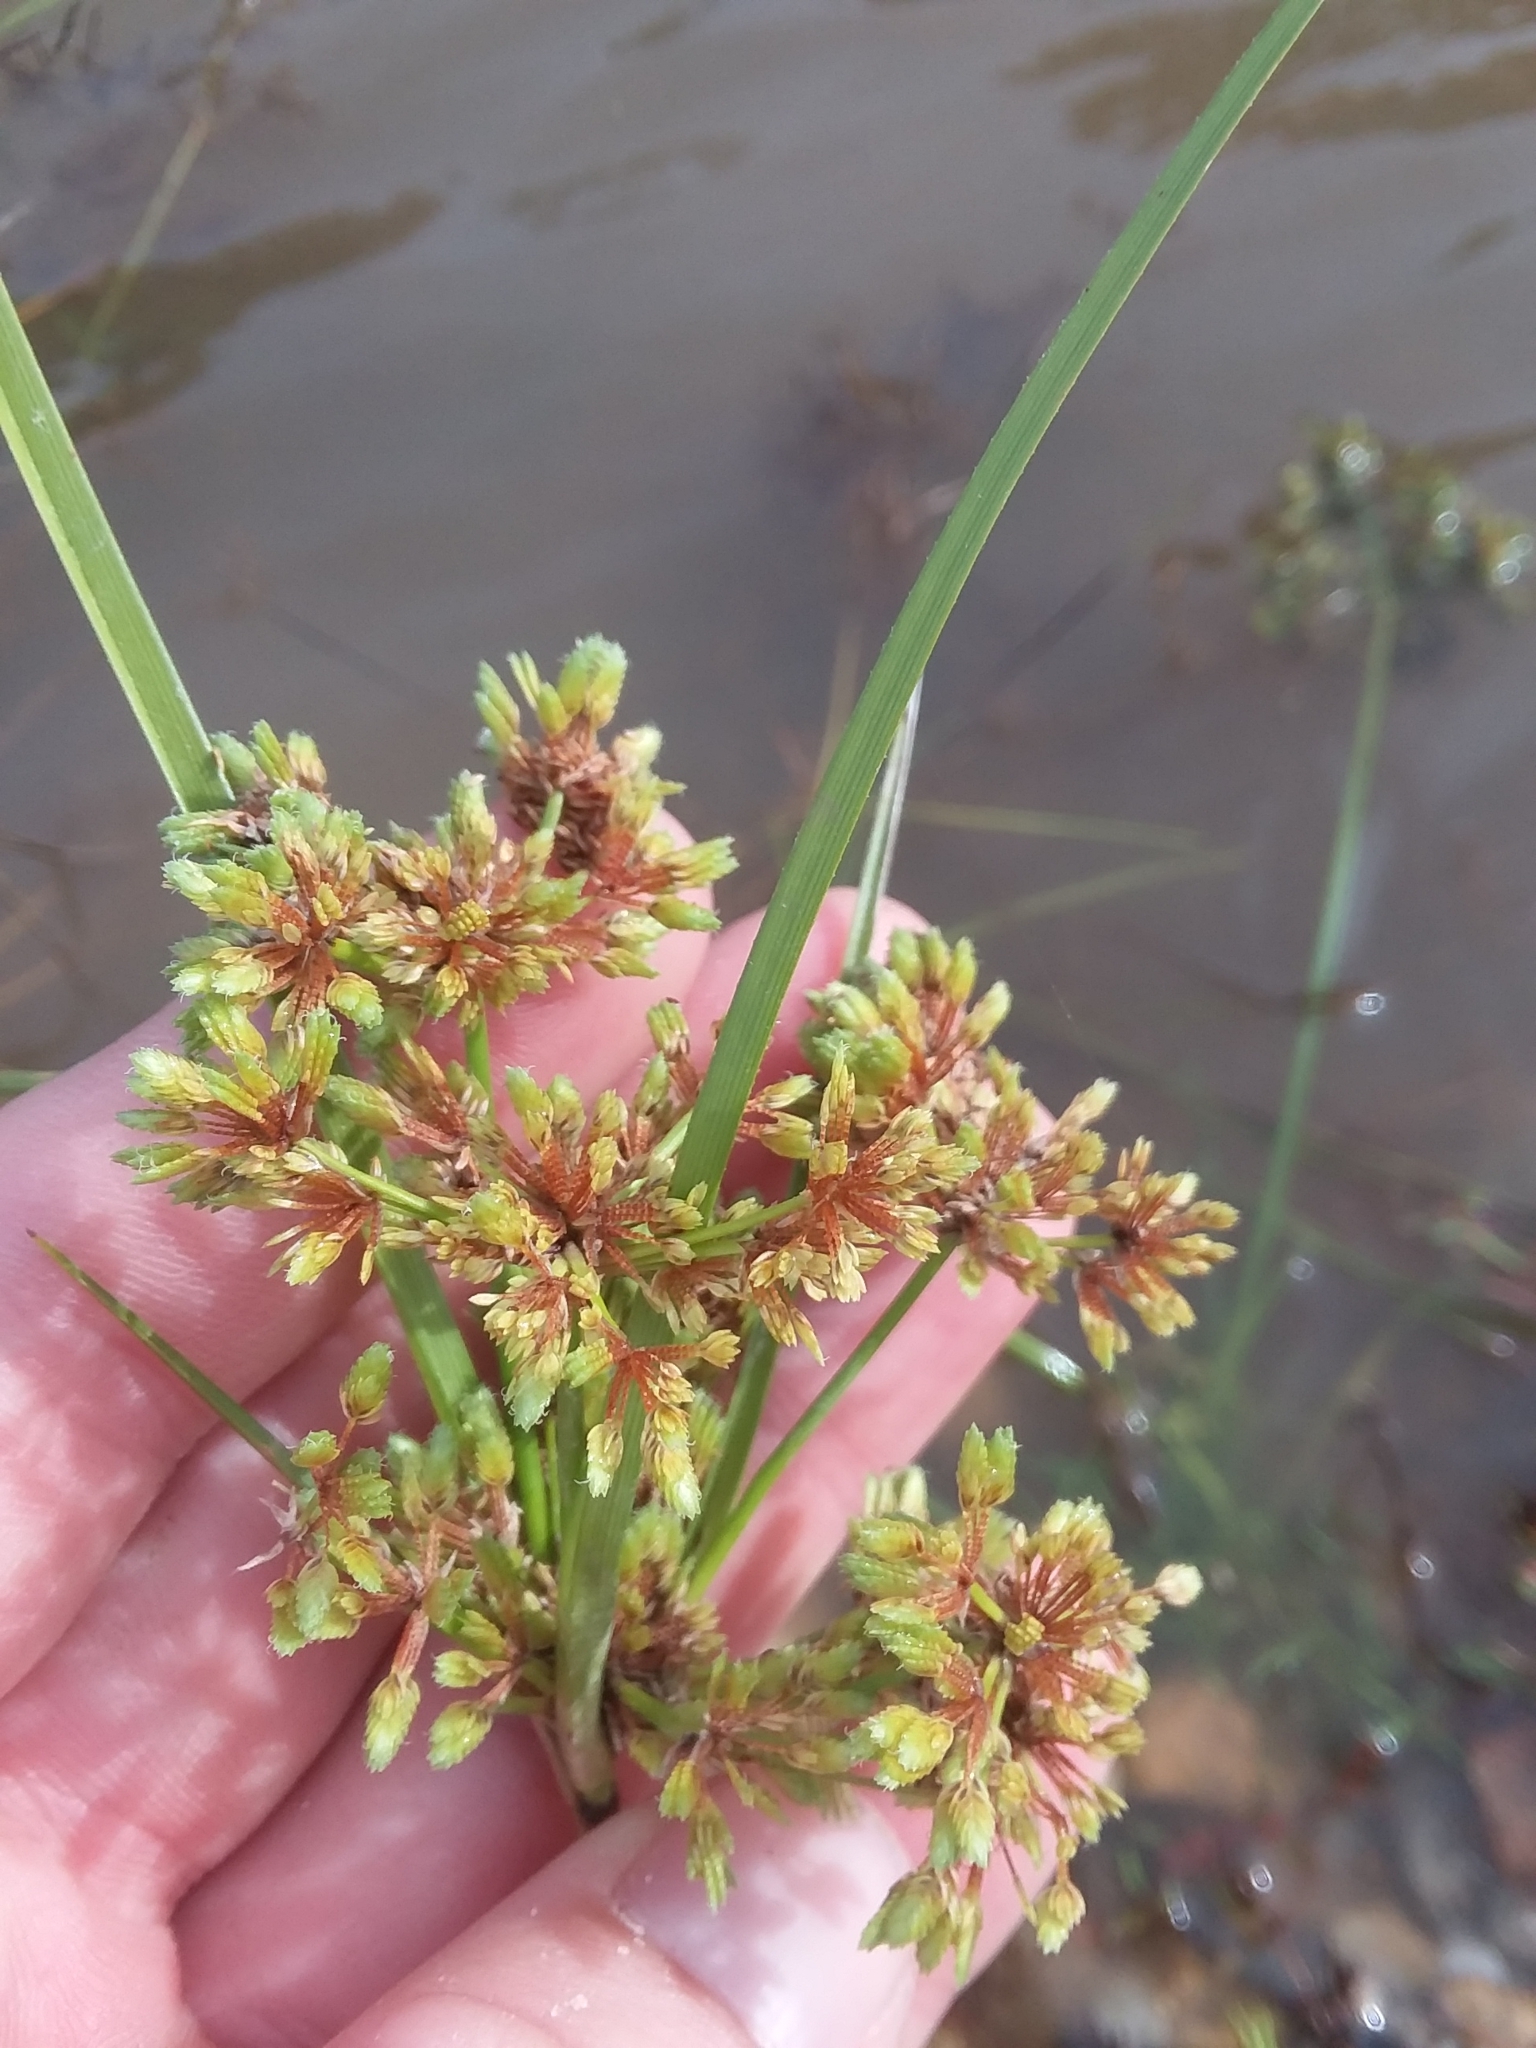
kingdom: Plantae
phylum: Tracheophyta
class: Liliopsida
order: Poales
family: Cyperaceae
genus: Cyperus
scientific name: Cyperus surinamensis
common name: Tropical flat sedge
